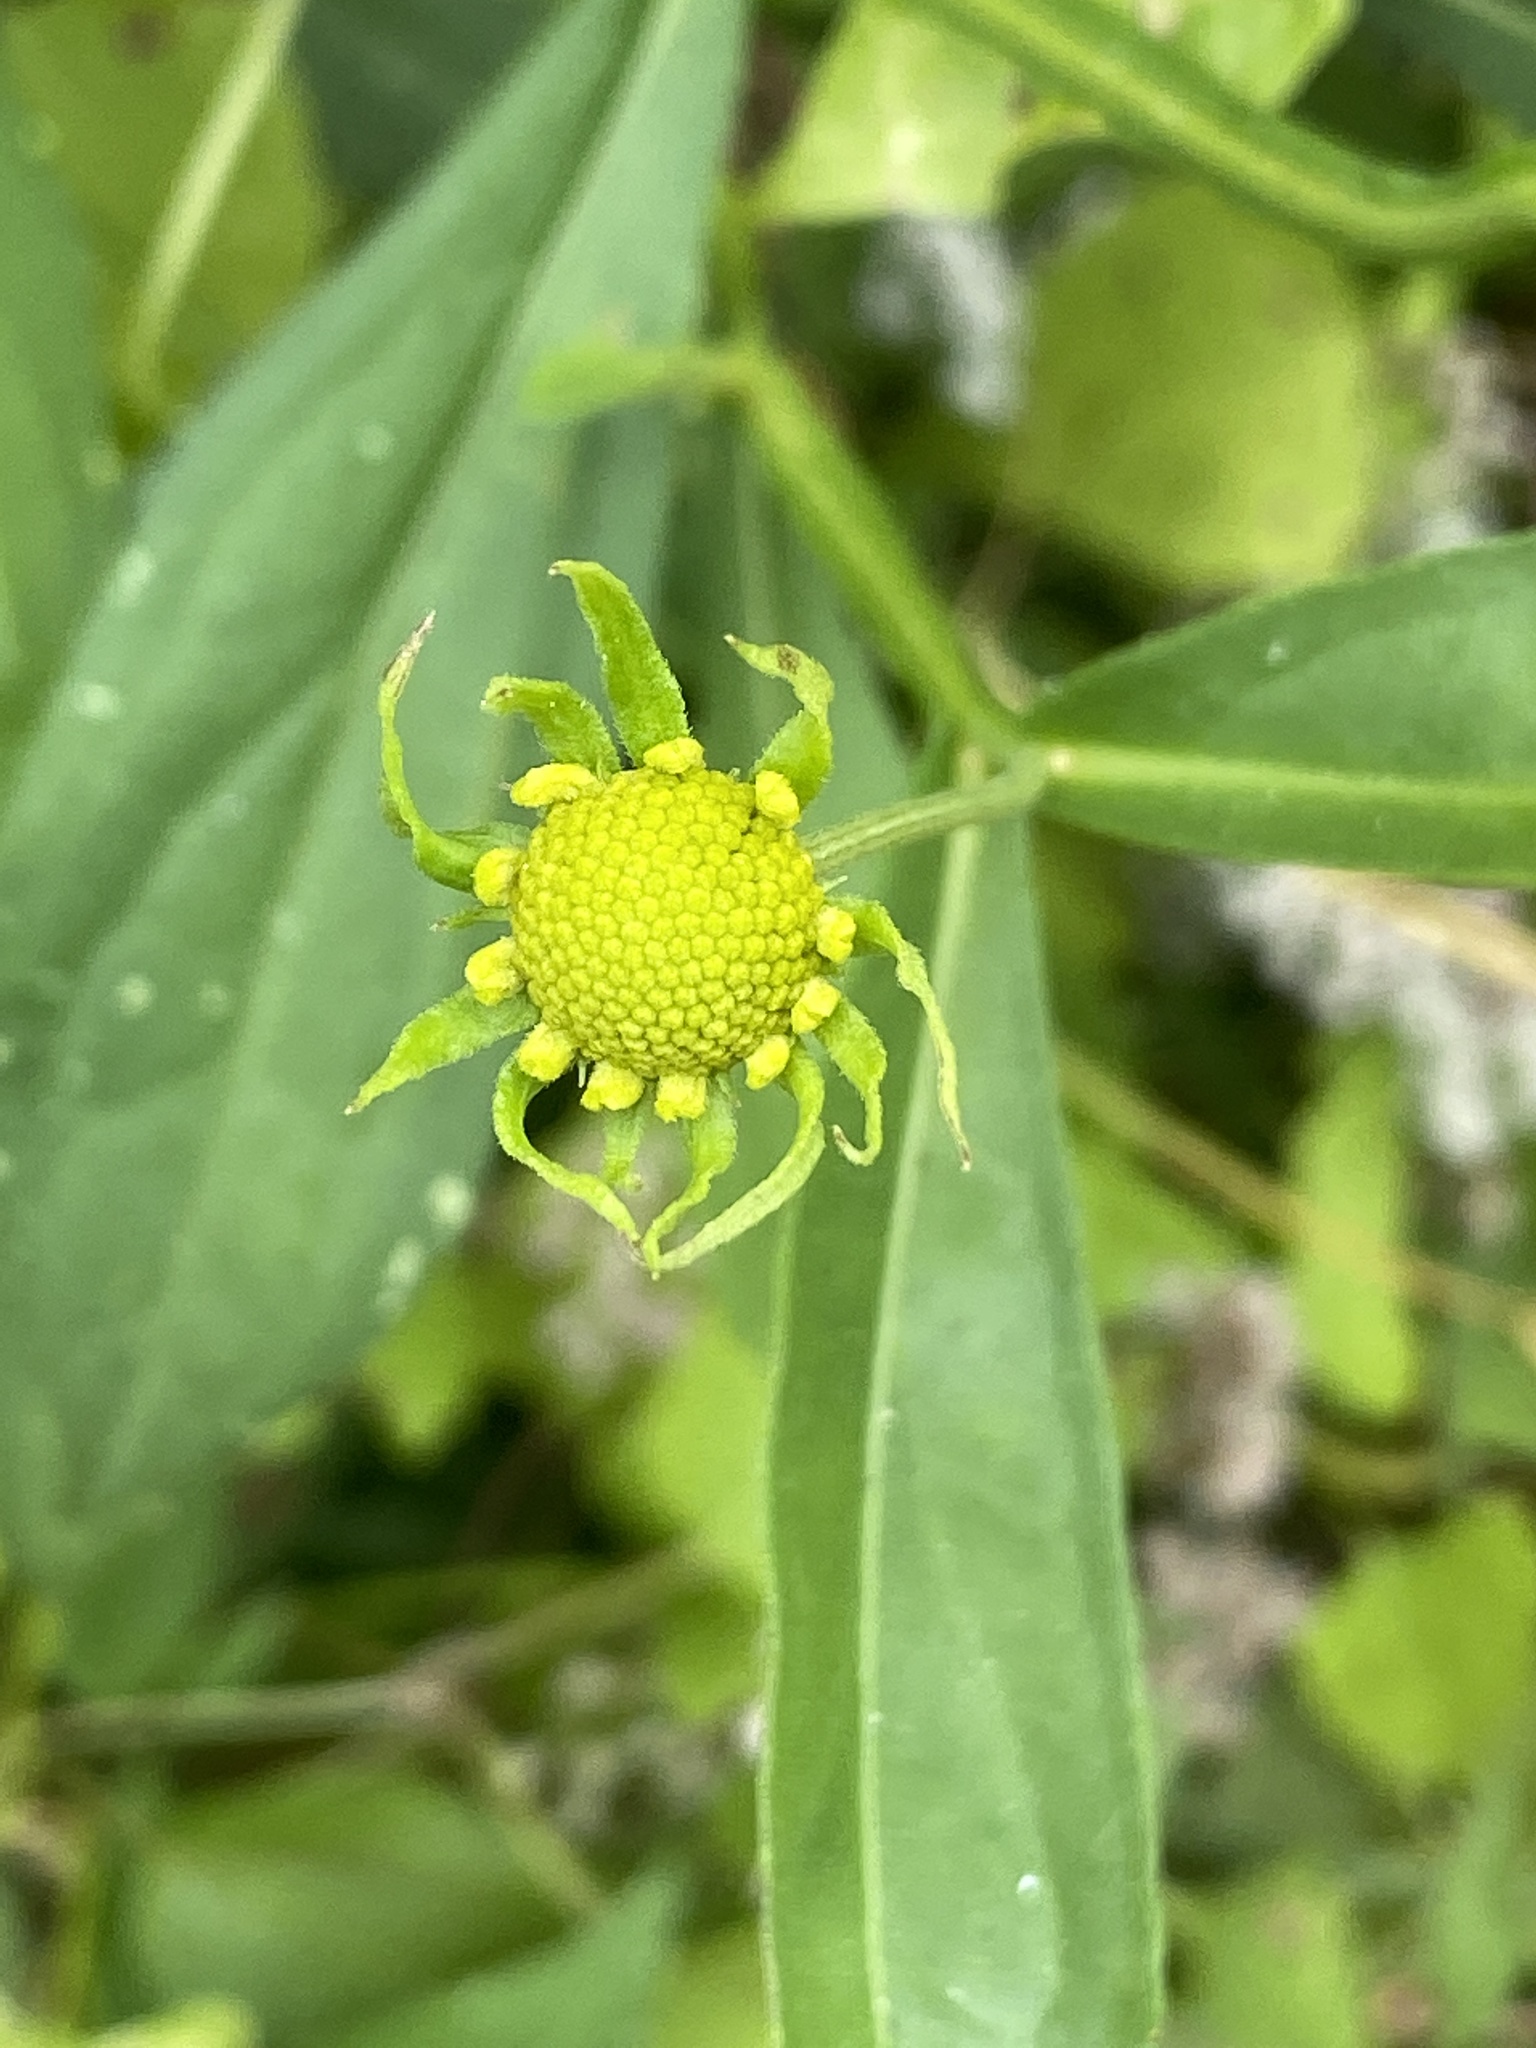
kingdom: Plantae
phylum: Tracheophyta
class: Magnoliopsida
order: Asterales
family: Asteraceae
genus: Helenium
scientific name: Helenium autumnale
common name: Sneezeweed
